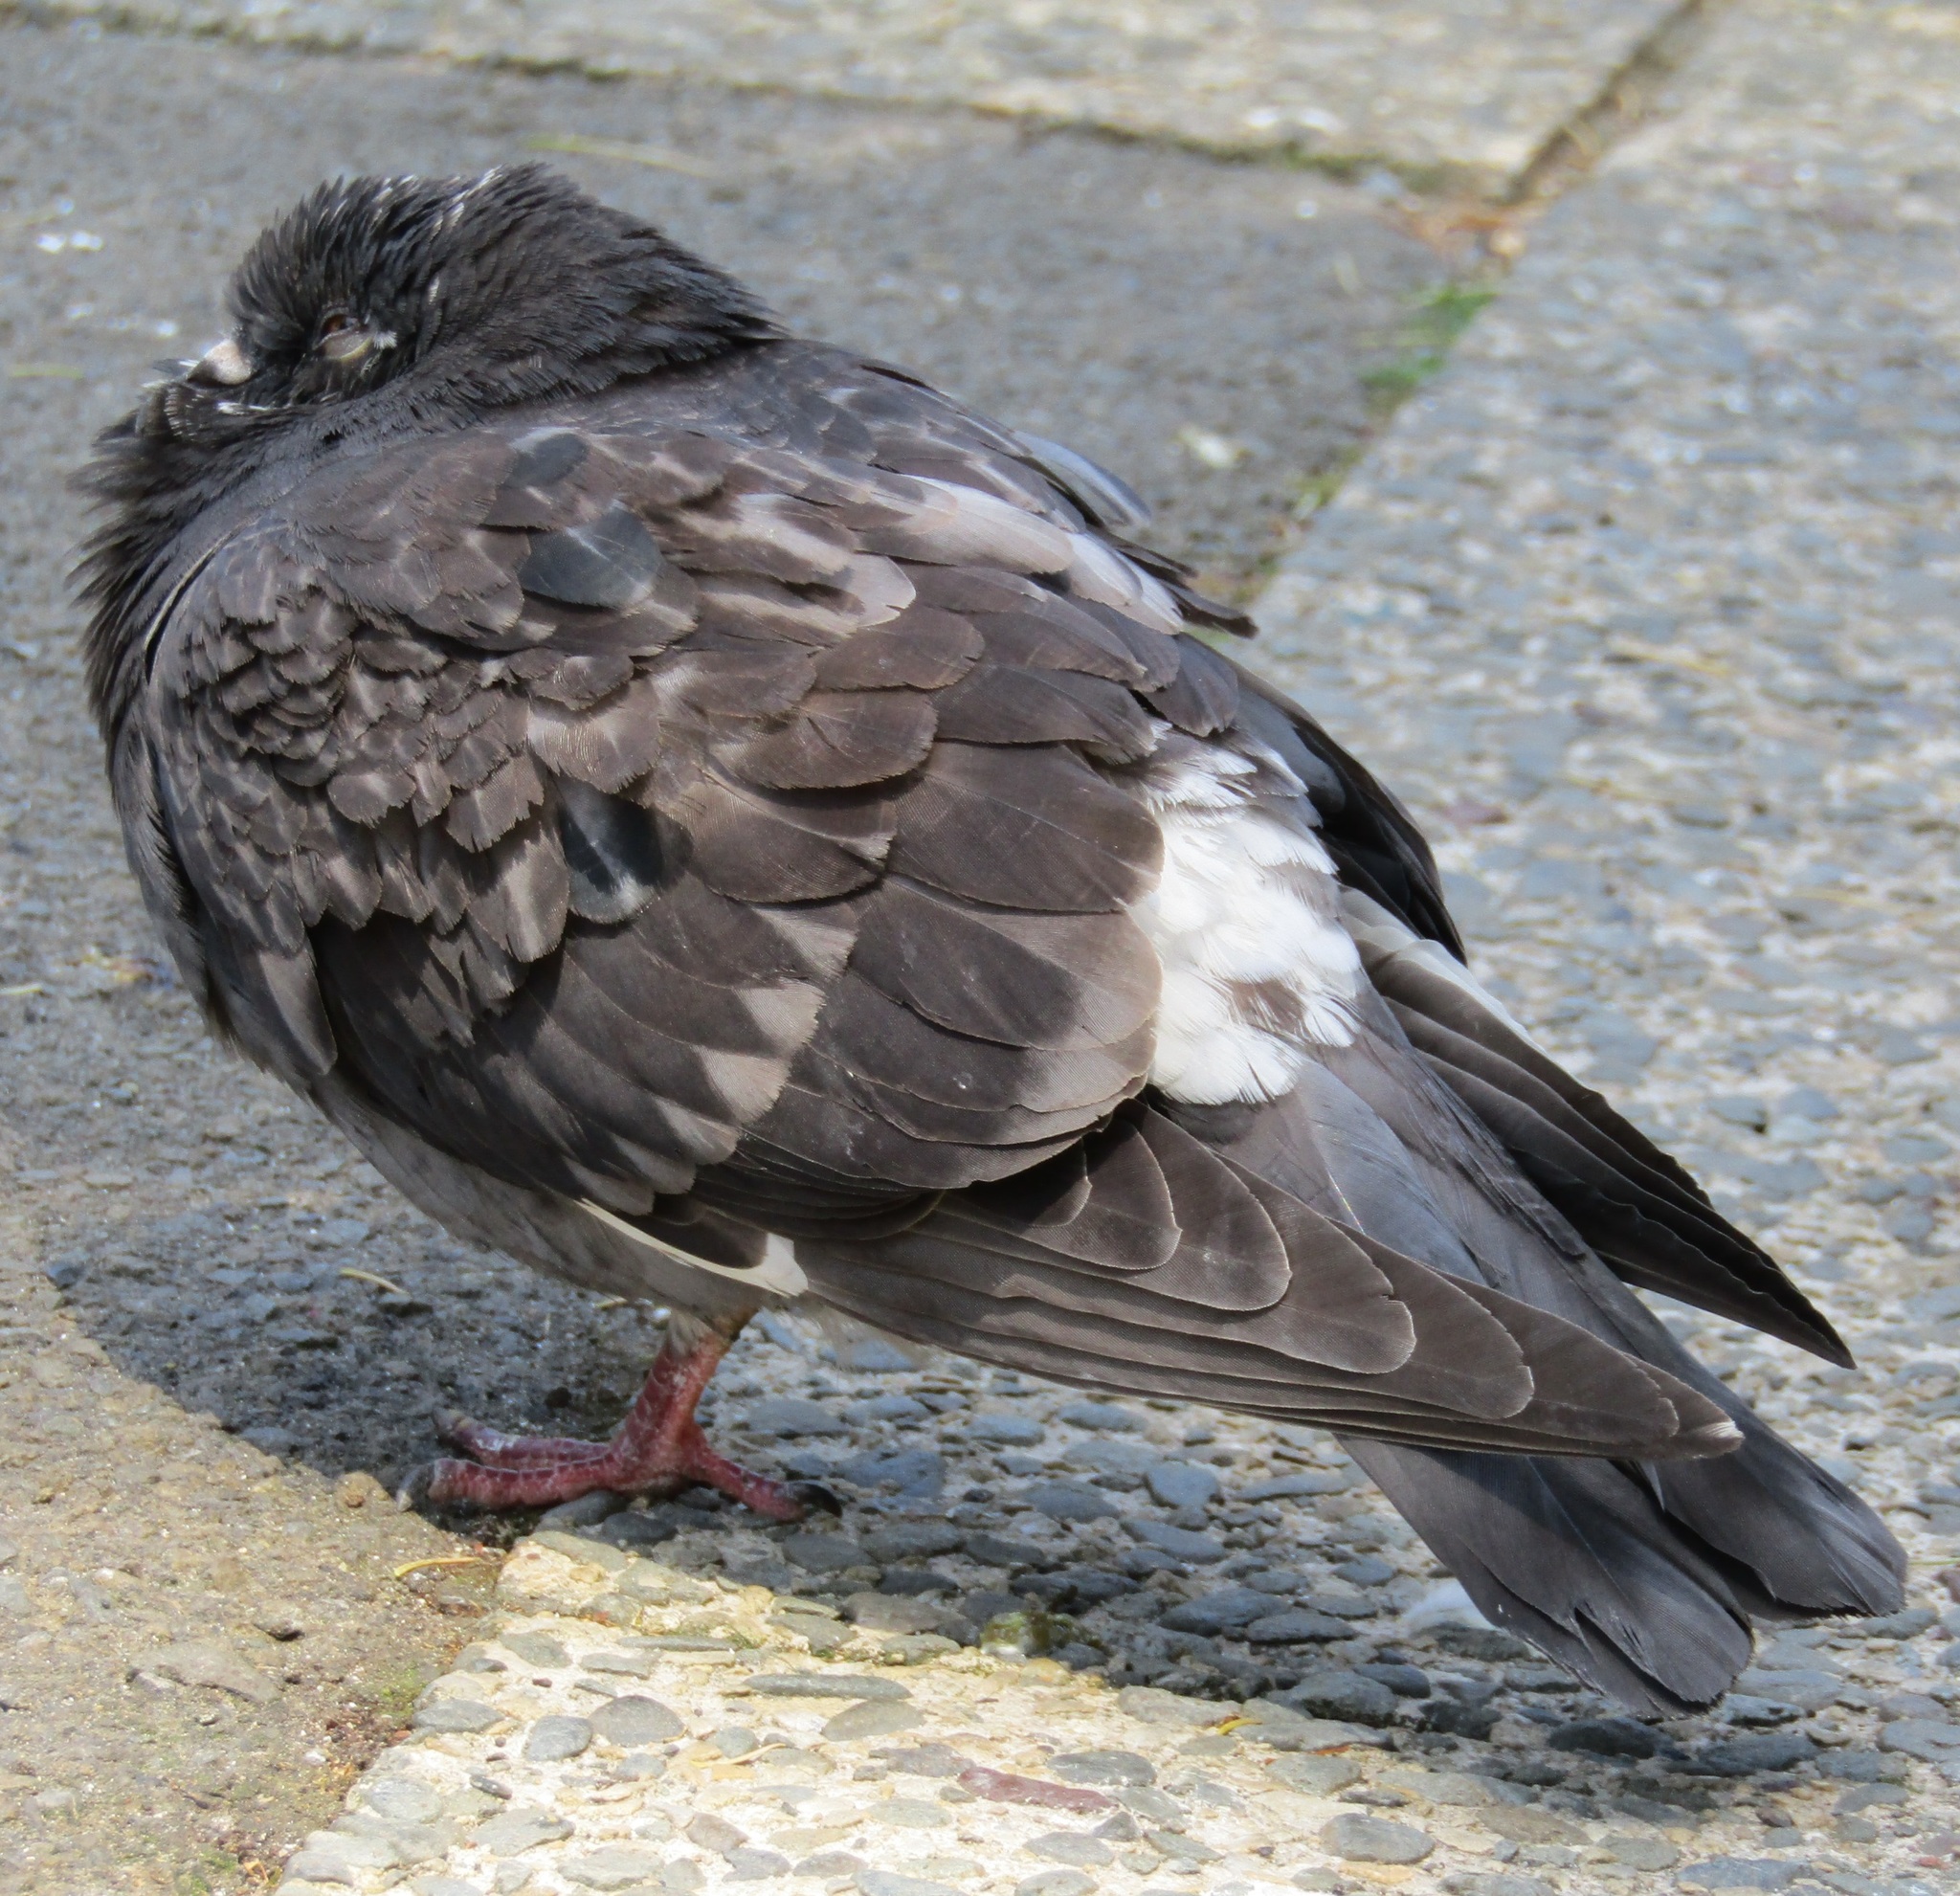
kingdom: Animalia
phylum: Chordata
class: Aves
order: Columbiformes
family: Columbidae
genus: Columba
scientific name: Columba livia
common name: Rock pigeon
